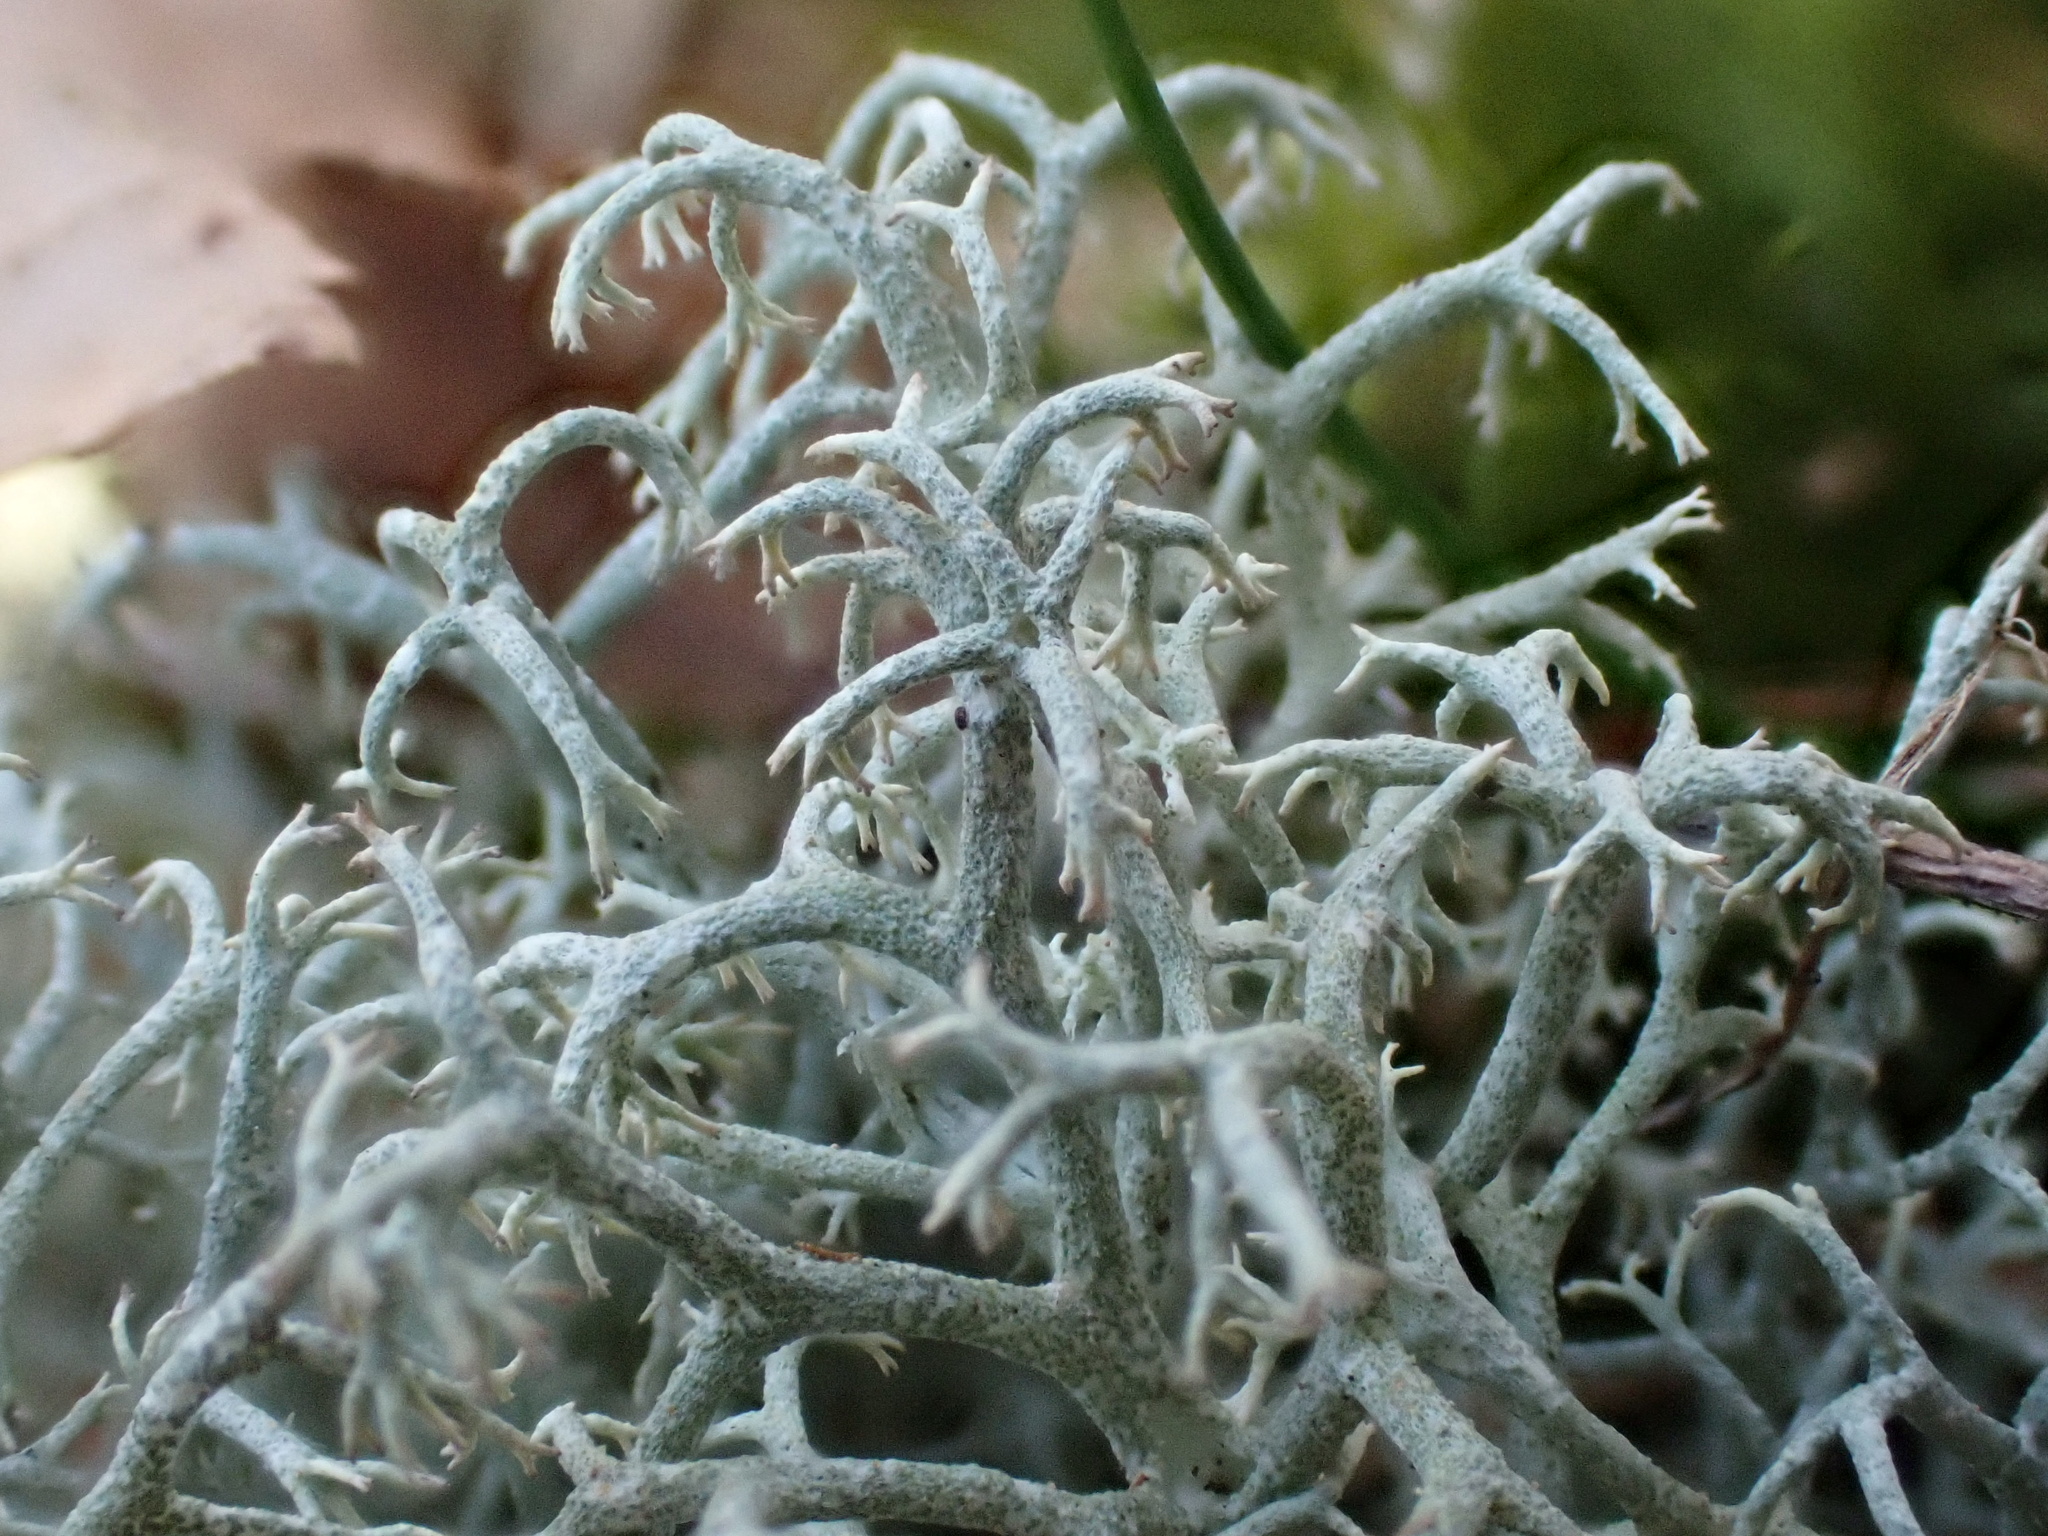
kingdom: Fungi
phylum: Ascomycota
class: Lecanoromycetes
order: Lecanorales
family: Cladoniaceae
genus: Cladonia
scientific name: Cladonia portentosa
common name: Reindeer lichen
